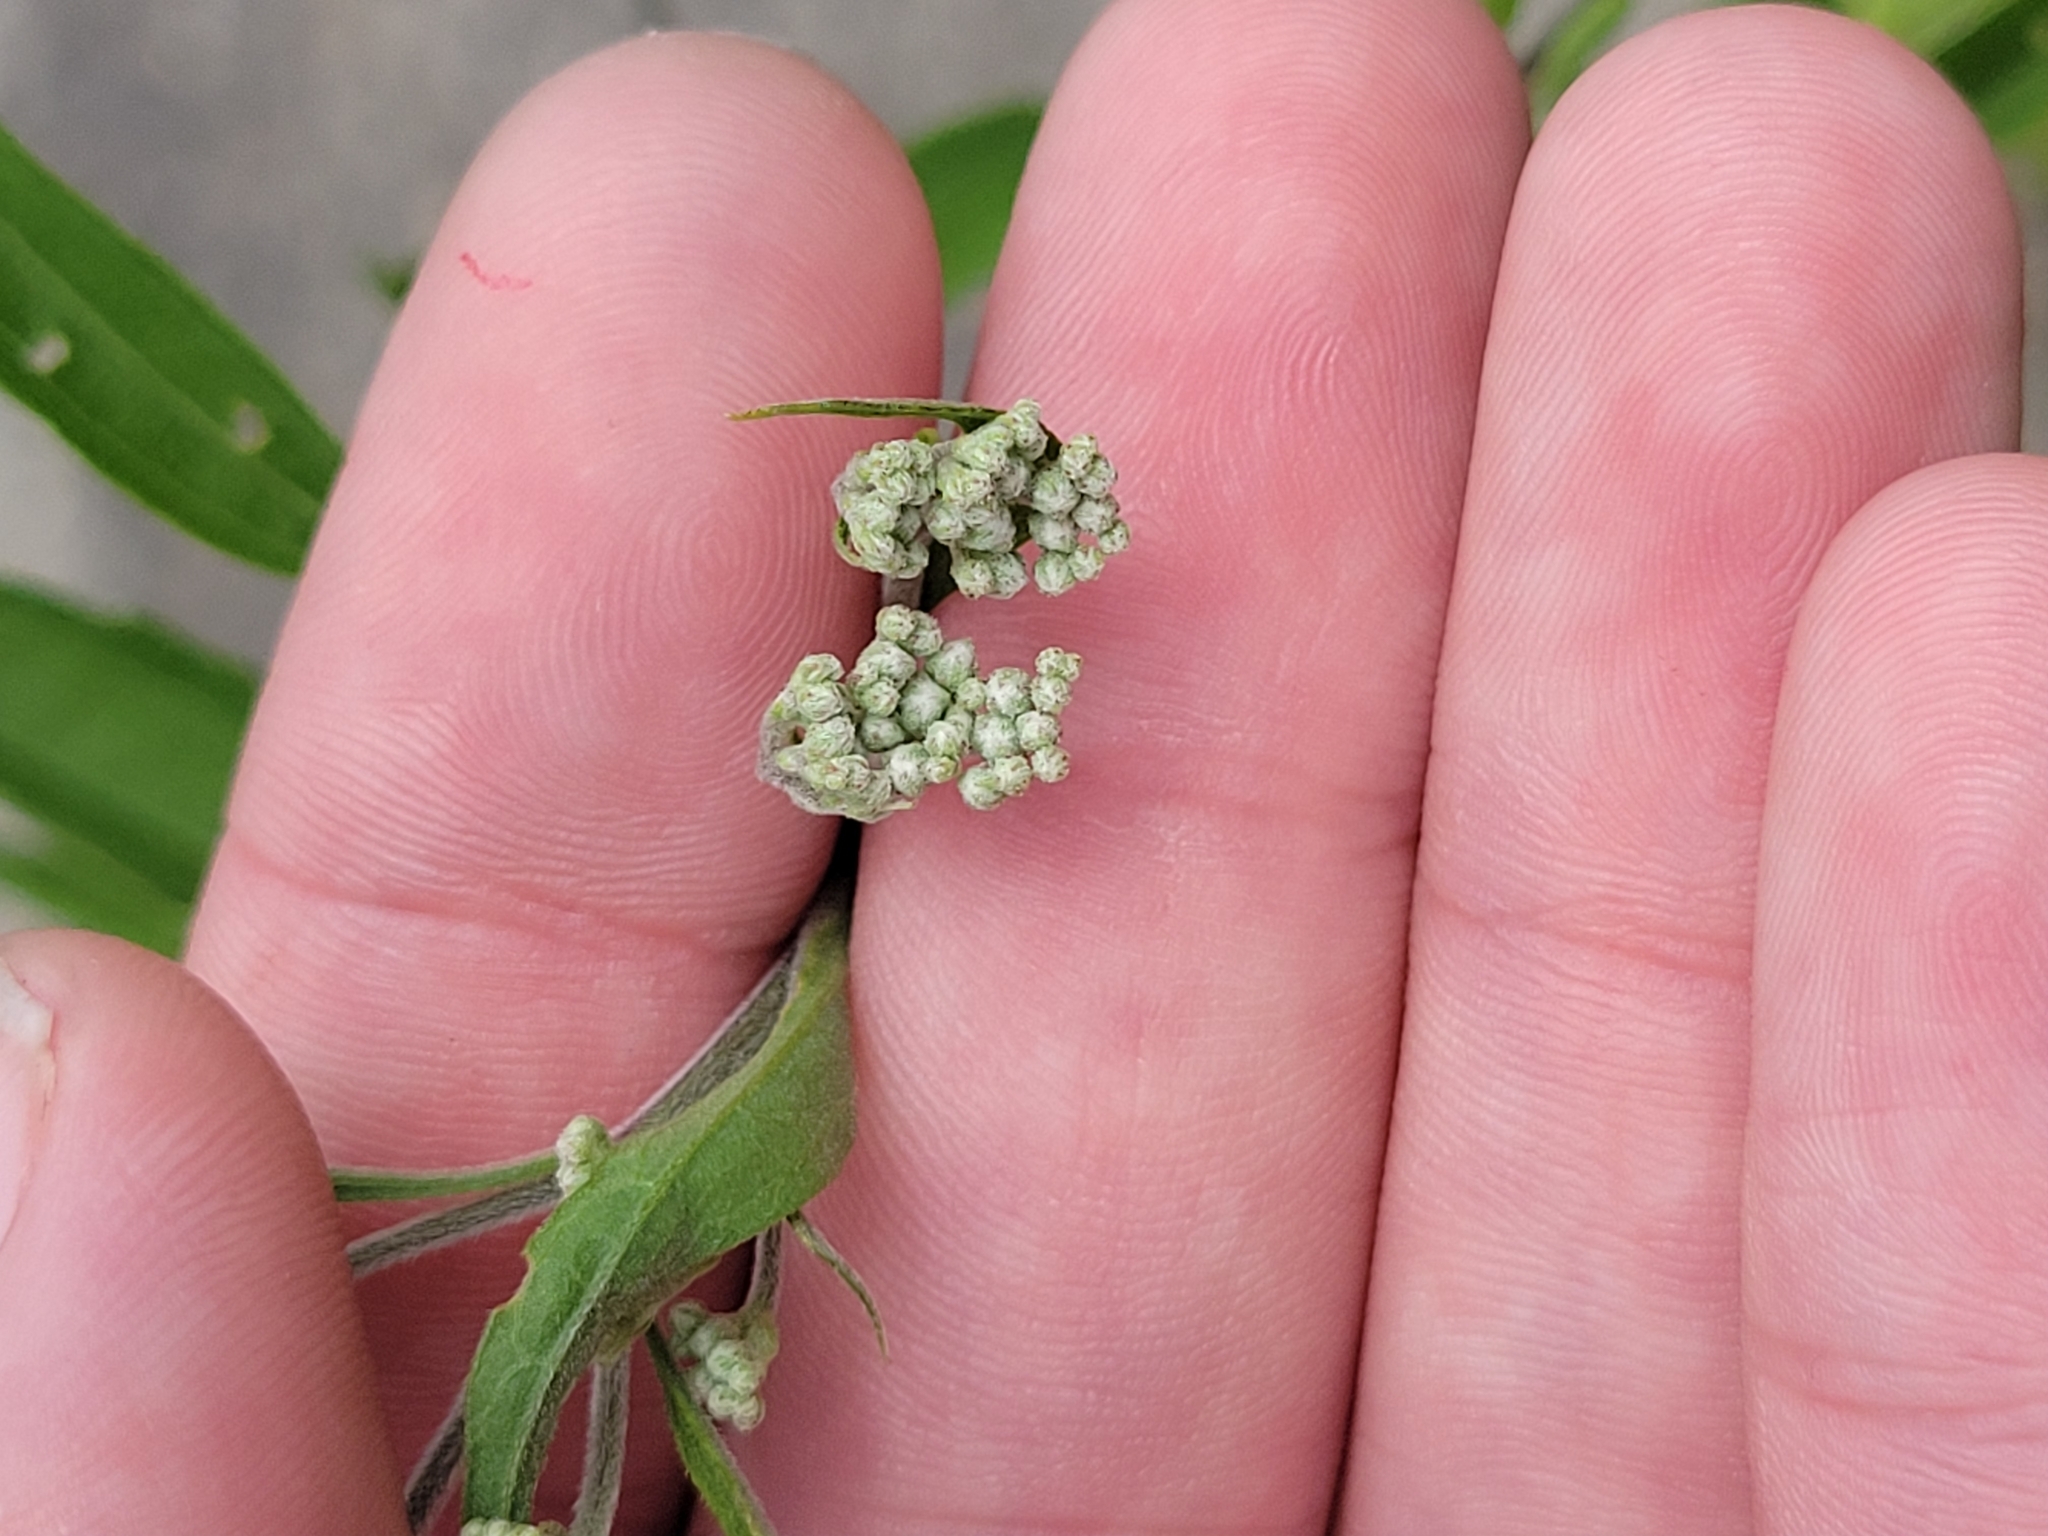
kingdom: Plantae
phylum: Tracheophyta
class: Magnoliopsida
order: Asterales
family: Asteraceae
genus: Eupatorium
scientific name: Eupatorium serotinum
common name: Late boneset
